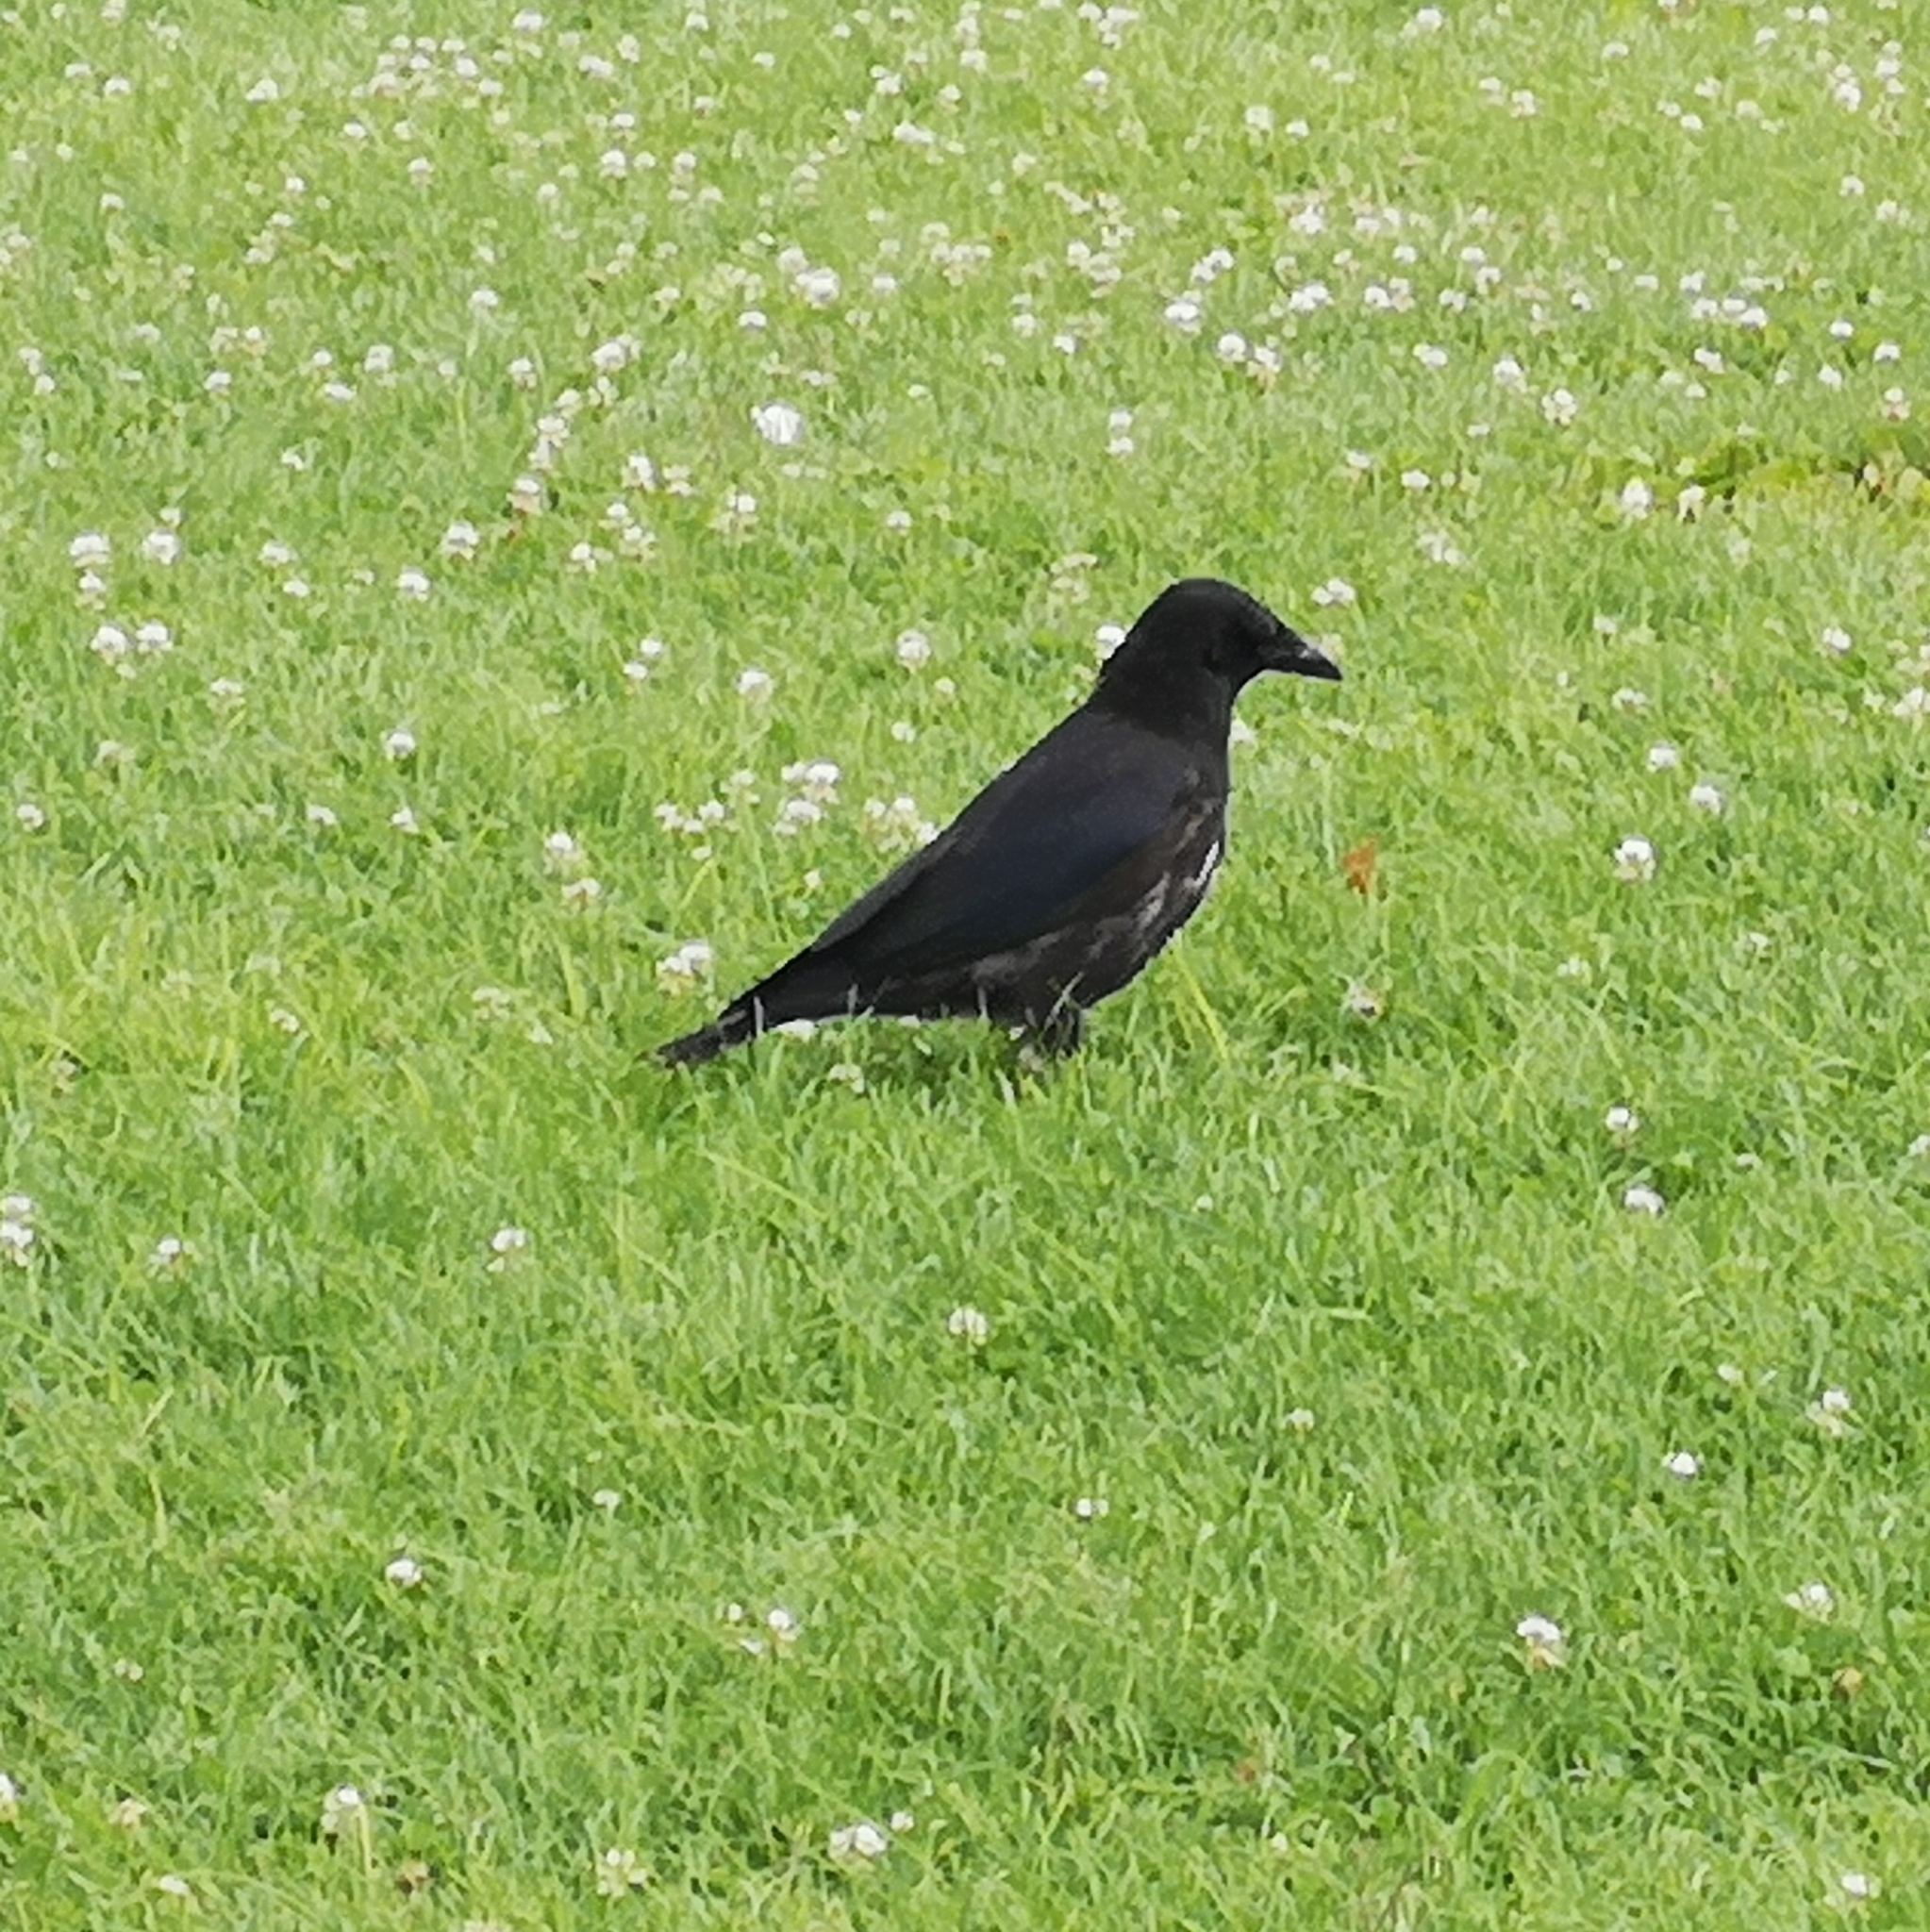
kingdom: Animalia
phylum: Chordata
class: Aves
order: Passeriformes
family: Corvidae
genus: Corvus
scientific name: Corvus
